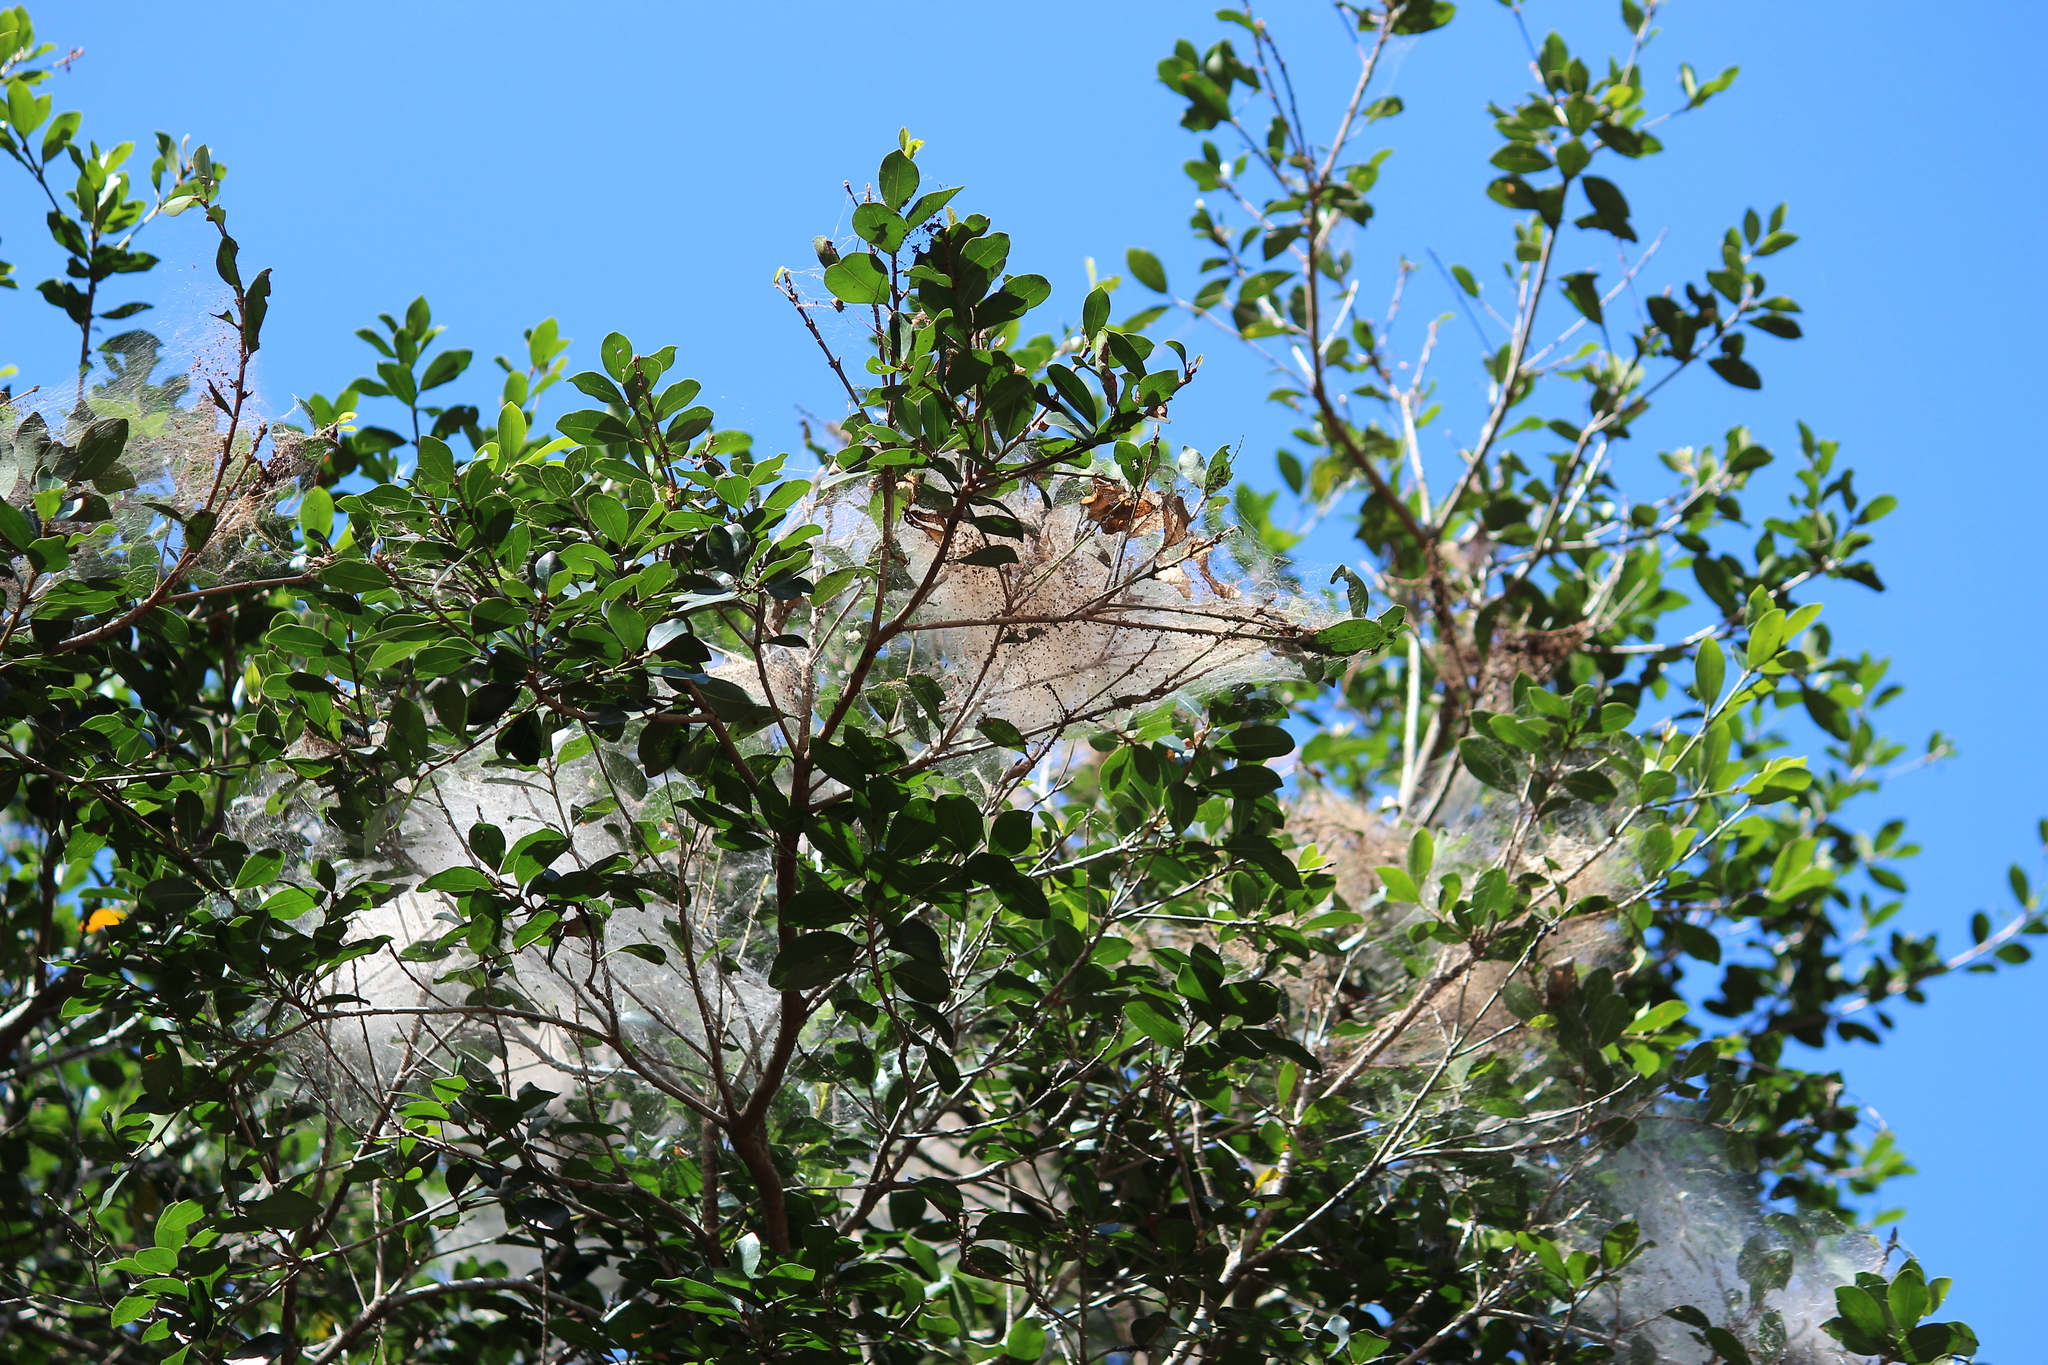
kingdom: Plantae
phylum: Tracheophyta
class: Magnoliopsida
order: Ericales
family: Sapotaceae
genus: Mimusops
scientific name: Mimusops obovata
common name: Red milkwood
